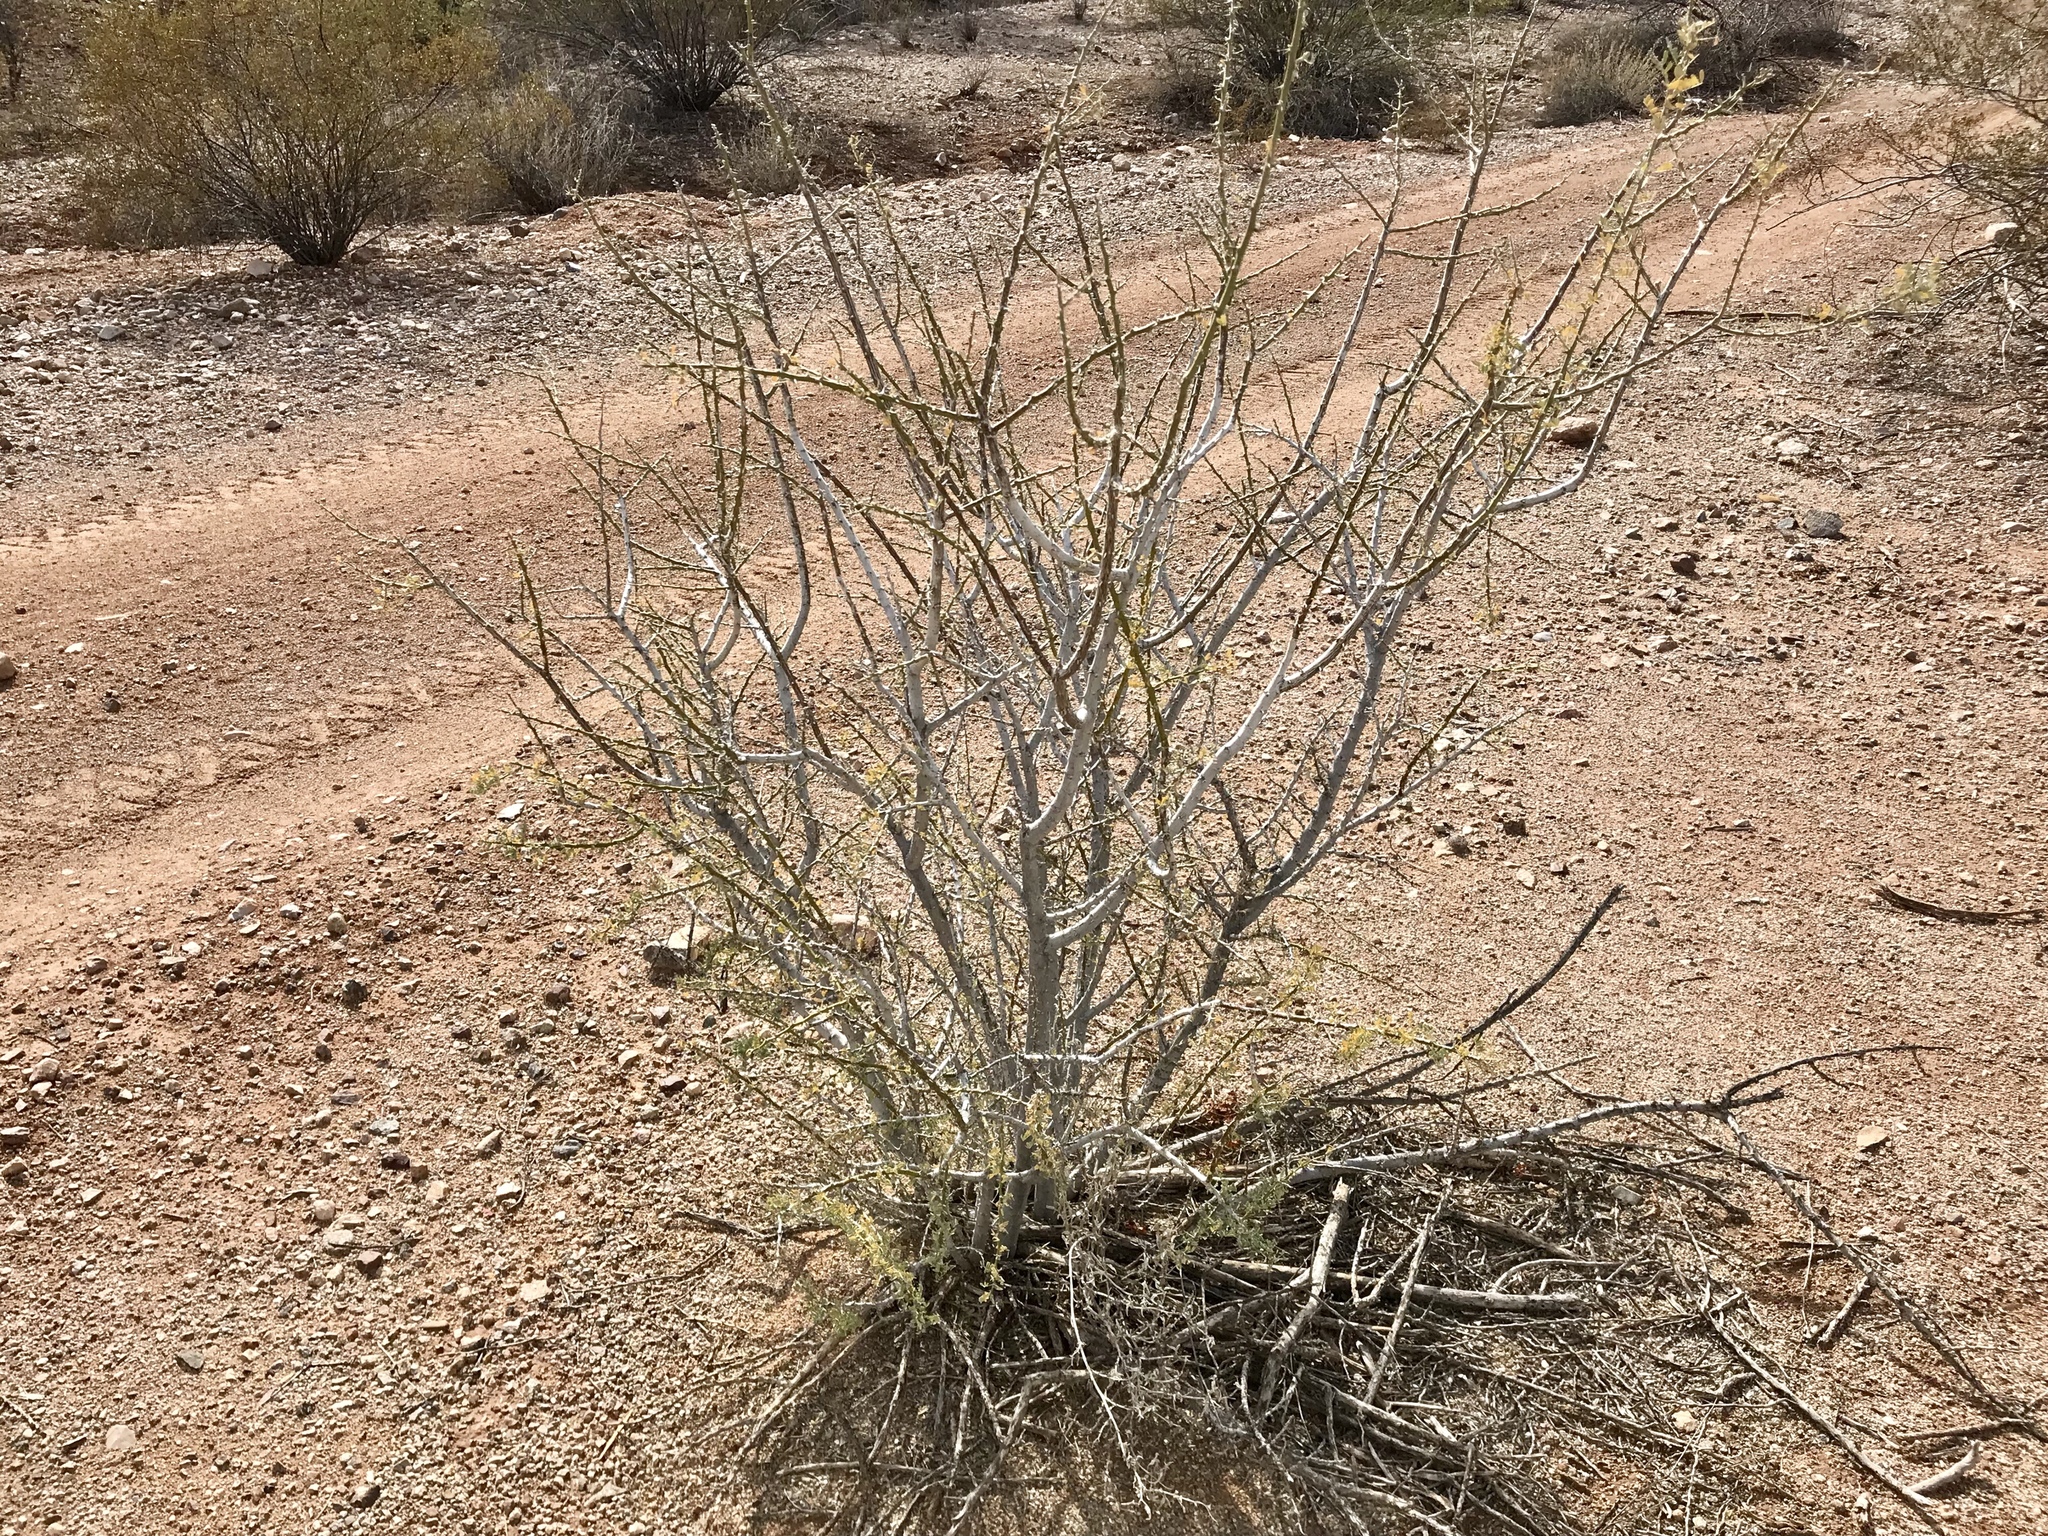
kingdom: Plantae
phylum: Tracheophyta
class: Magnoliopsida
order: Fabales
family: Fabaceae
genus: Olneya
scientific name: Olneya tesota
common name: Desert ironwood
